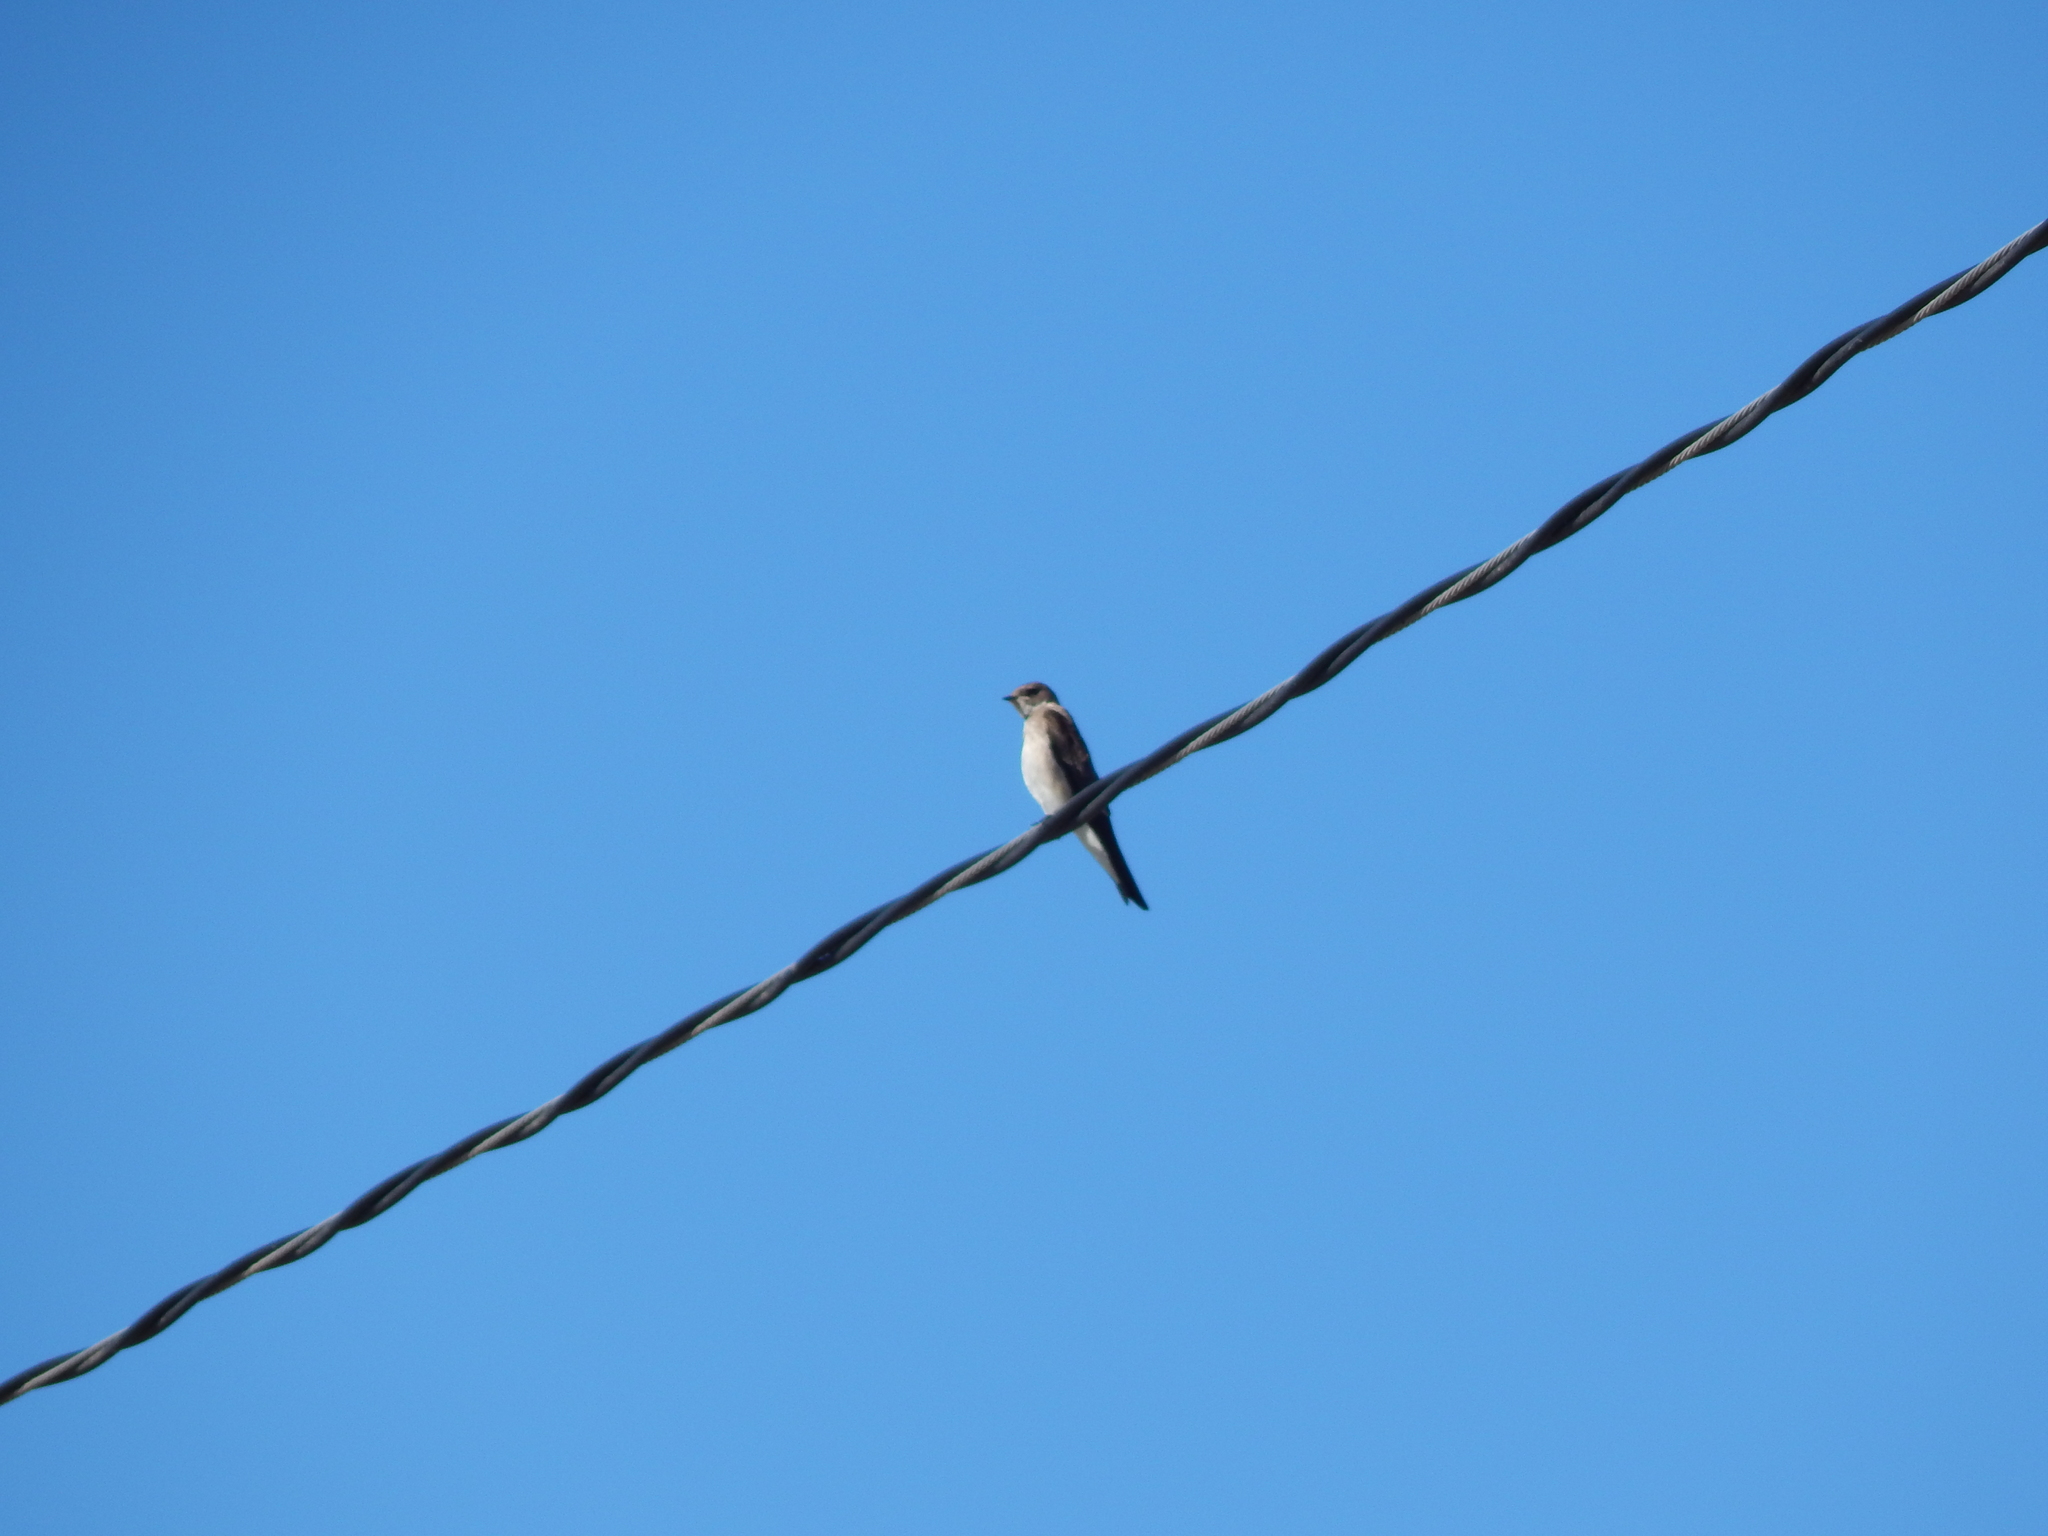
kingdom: Animalia
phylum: Chordata
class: Aves
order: Passeriformes
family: Hirundinidae
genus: Stelgidopteryx
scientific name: Stelgidopteryx serripennis
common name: Northern rough-winged swallow
